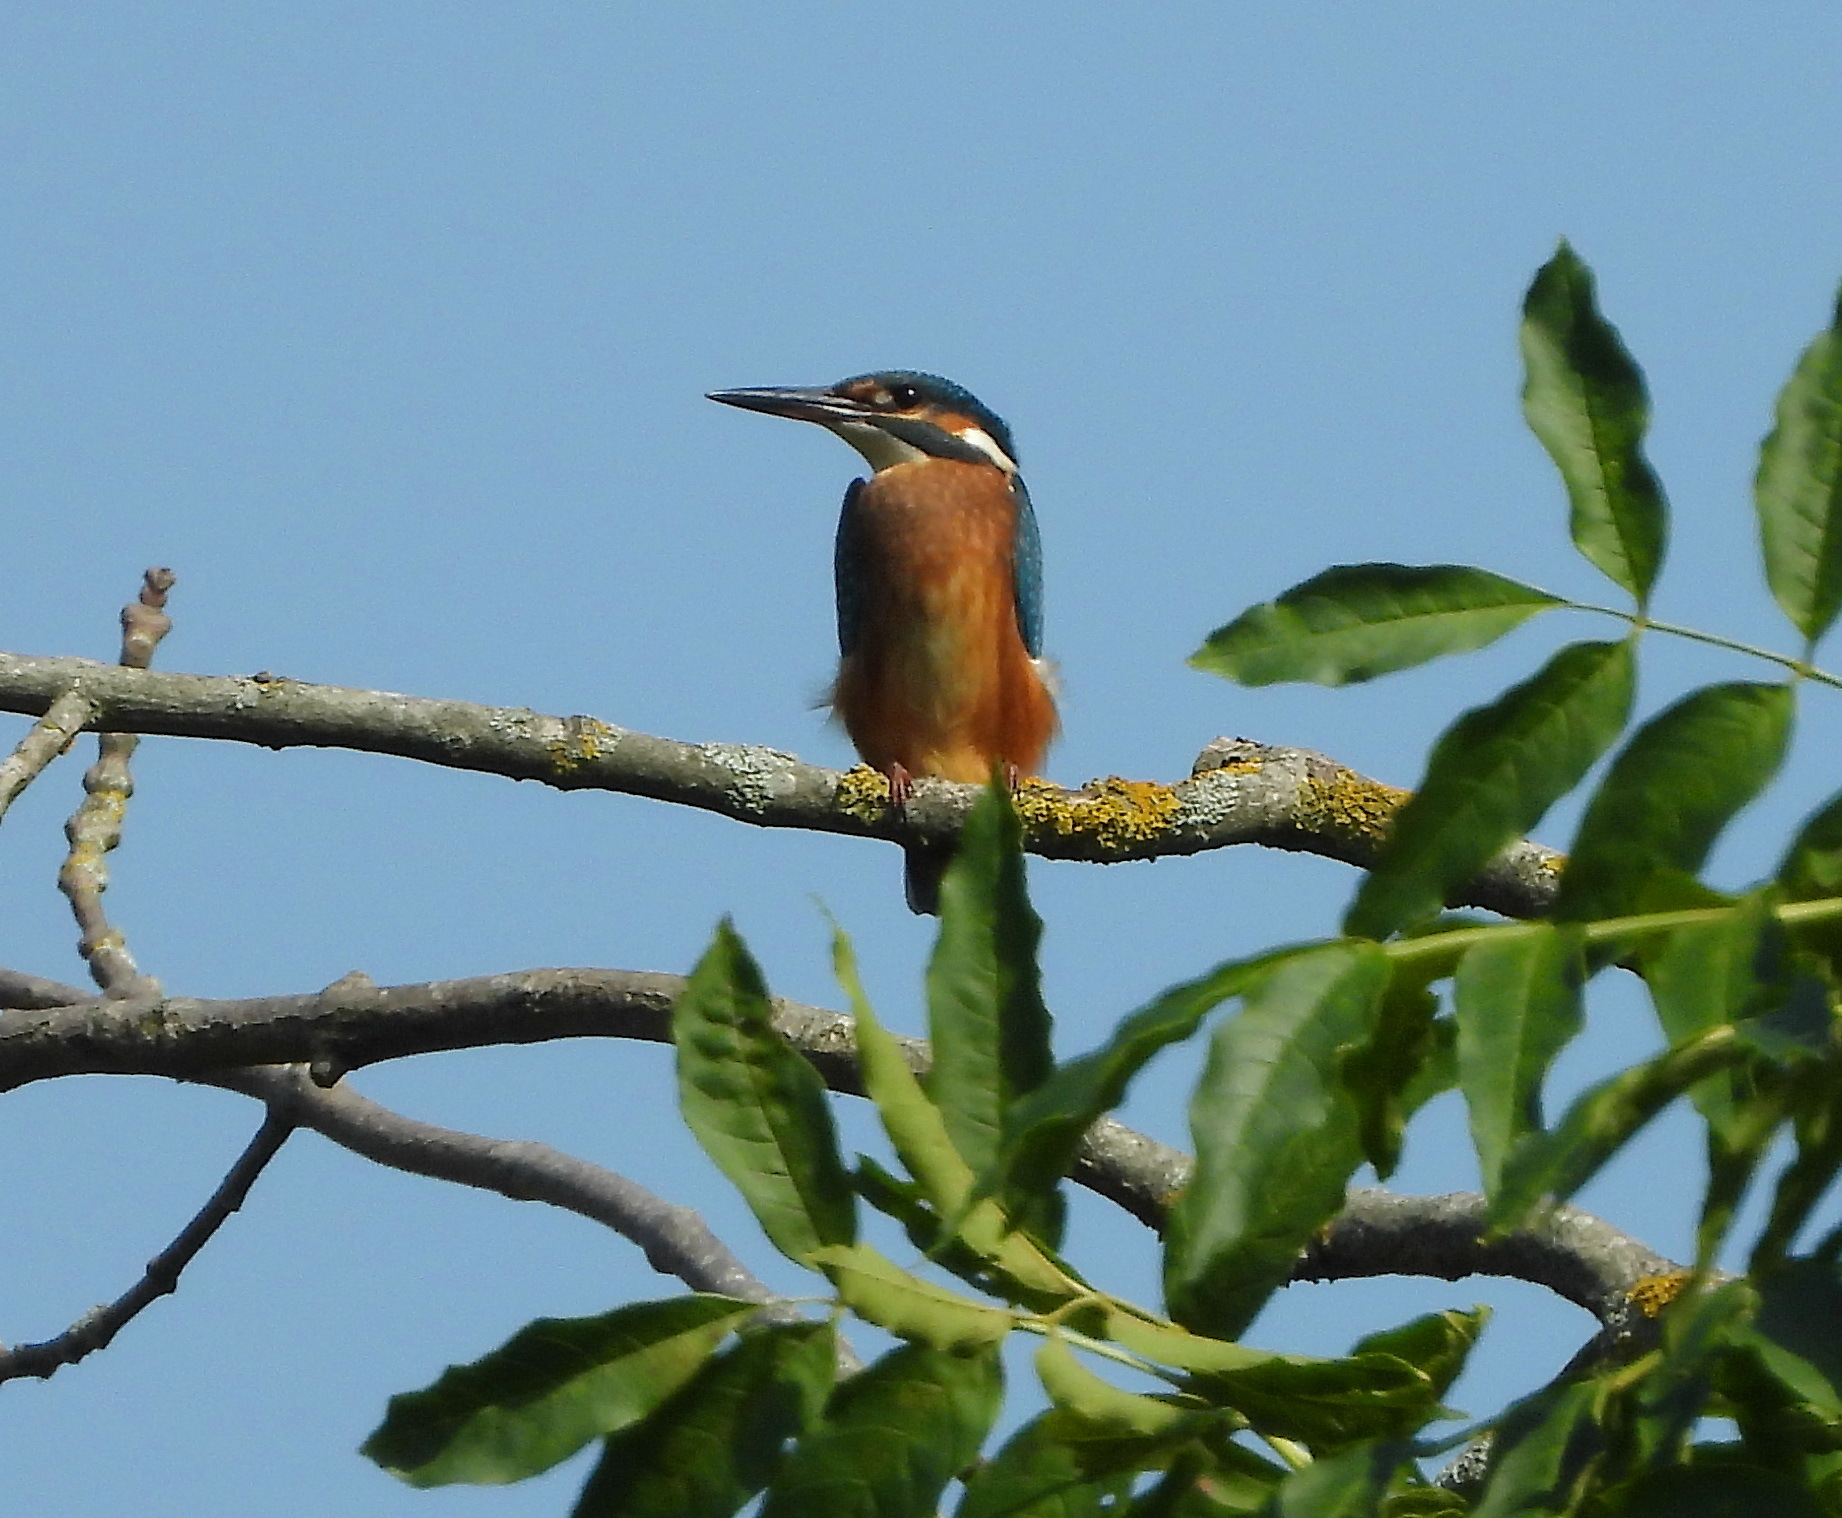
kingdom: Animalia
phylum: Chordata
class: Aves
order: Coraciiformes
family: Alcedinidae
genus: Alcedo
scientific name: Alcedo atthis
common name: Common kingfisher
